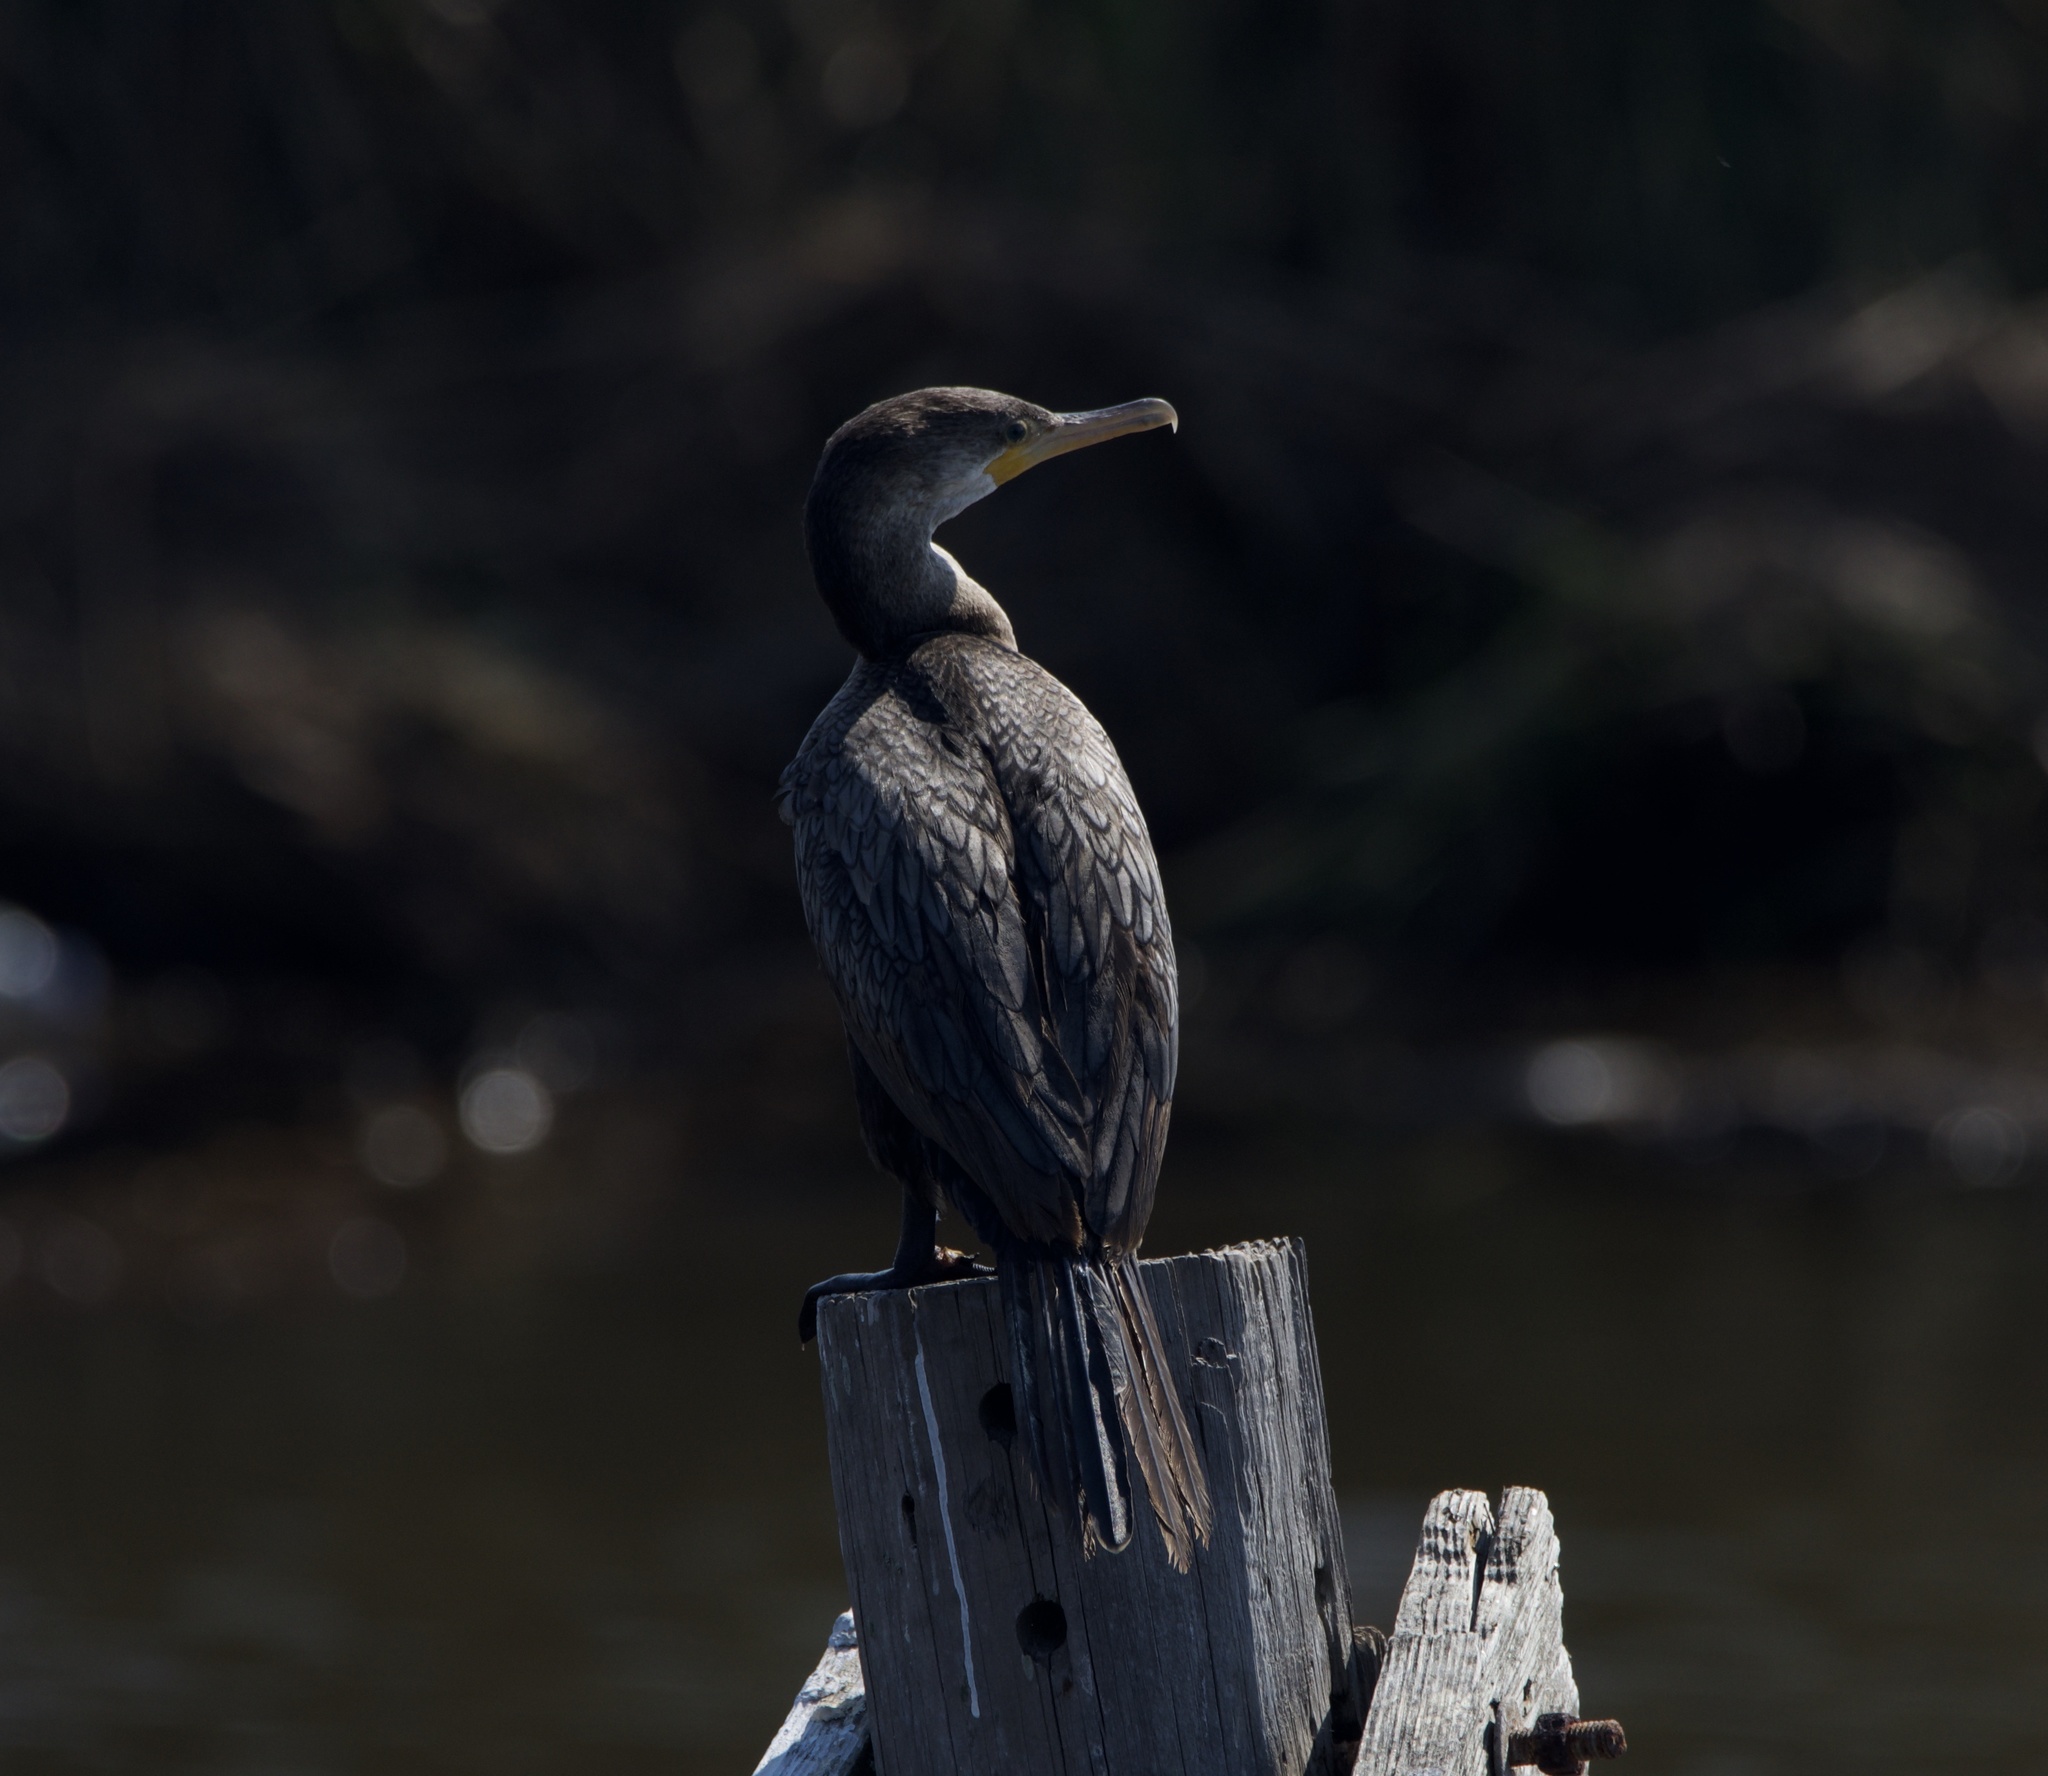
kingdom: Animalia
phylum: Chordata
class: Aves
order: Suliformes
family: Phalacrocoracidae
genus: Phalacrocorax
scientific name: Phalacrocorax brasilianus
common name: Neotropic cormorant
